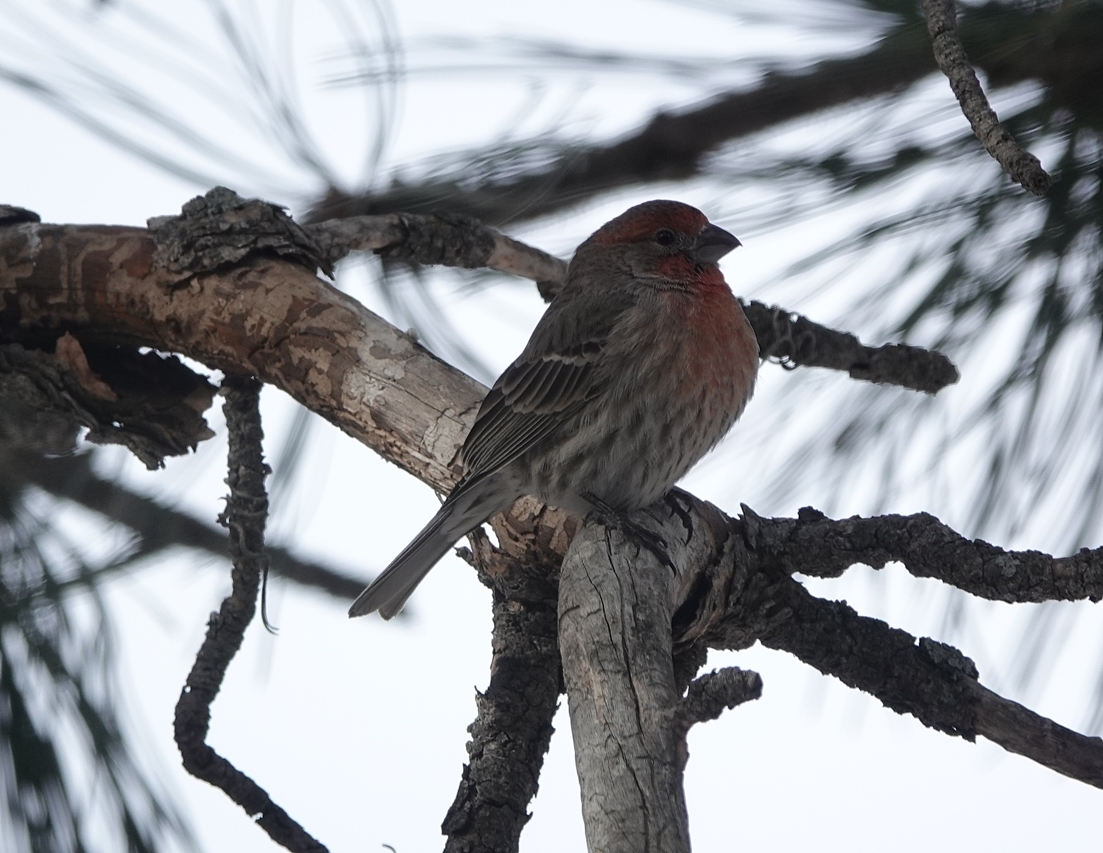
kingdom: Animalia
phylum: Chordata
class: Aves
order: Passeriformes
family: Fringillidae
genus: Haemorhous
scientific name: Haemorhous mexicanus
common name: House finch
